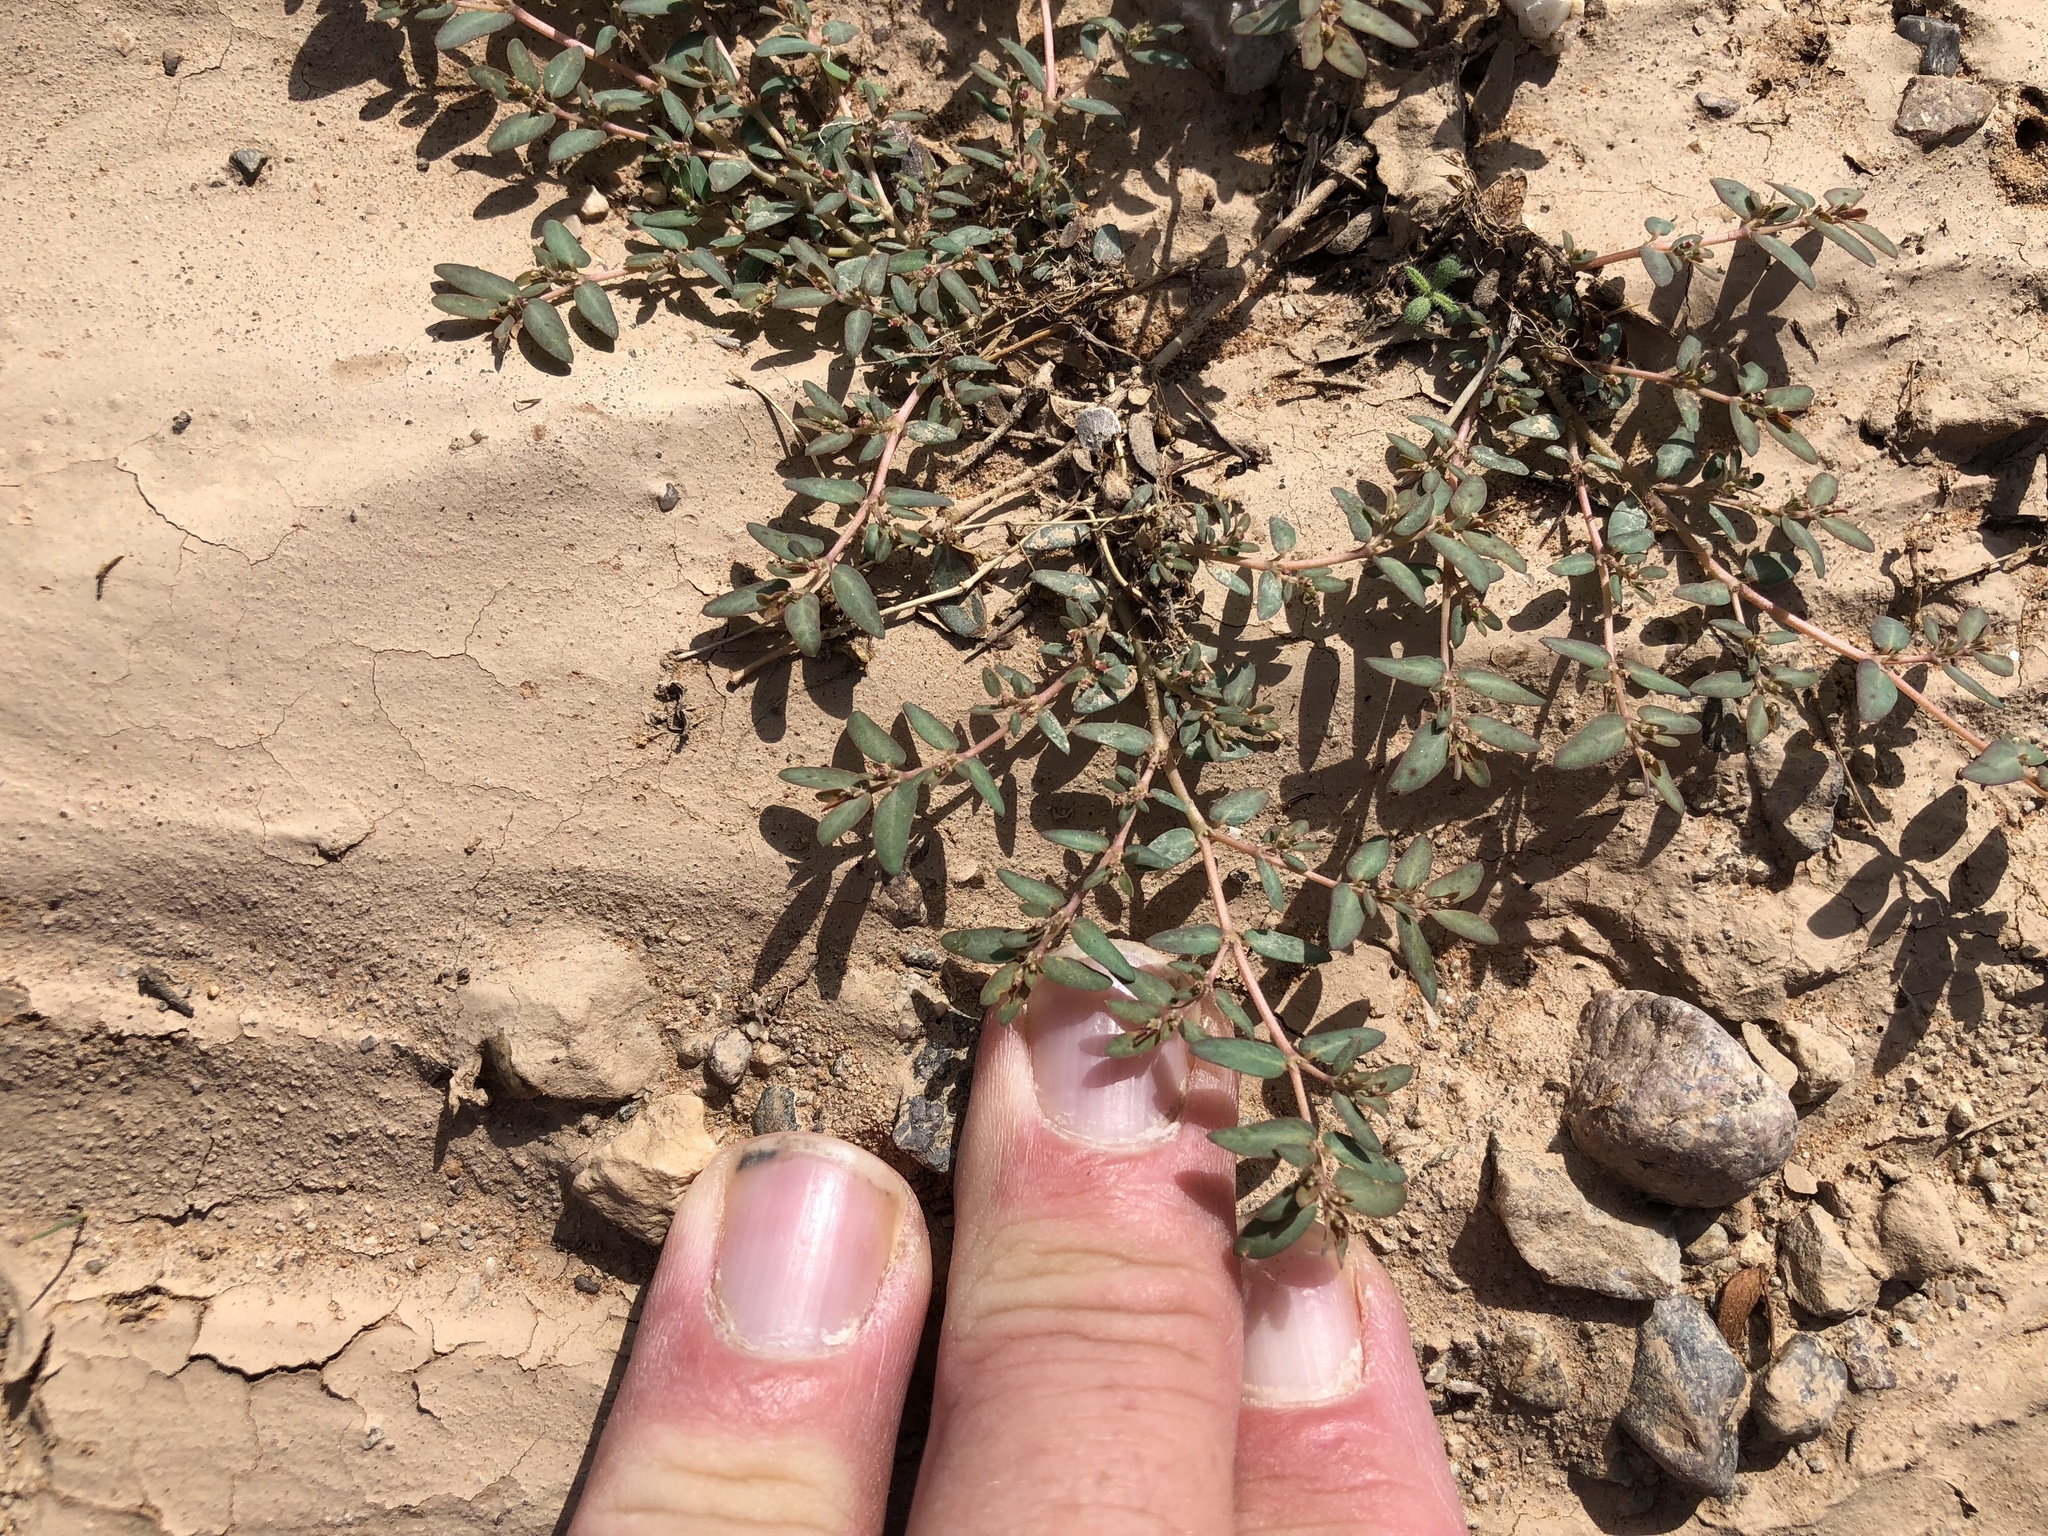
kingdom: Plantae
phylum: Tracheophyta
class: Magnoliopsida
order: Malpighiales
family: Euphorbiaceae
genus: Euphorbia
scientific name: Euphorbia abramsiana
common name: Abram's spurge
